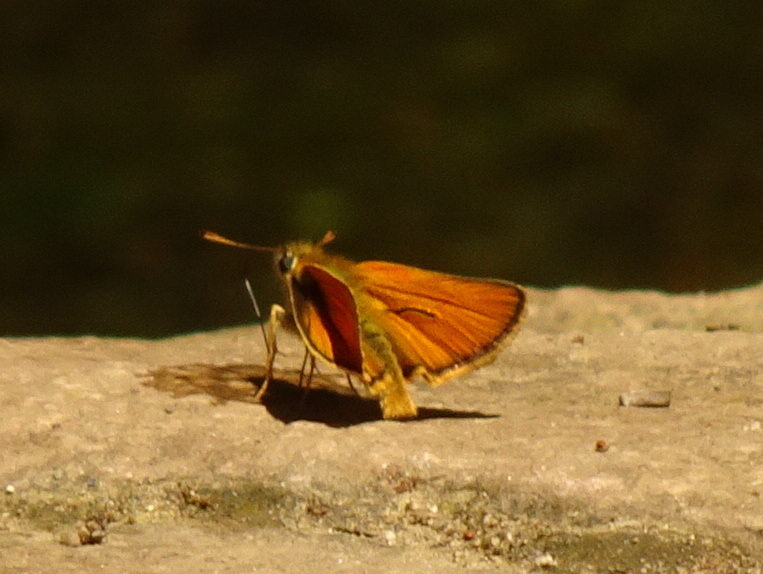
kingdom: Animalia
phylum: Arthropoda
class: Insecta
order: Lepidoptera
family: Hesperiidae
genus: Thymelicus
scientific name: Thymelicus sylvestris
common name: Small skipper
